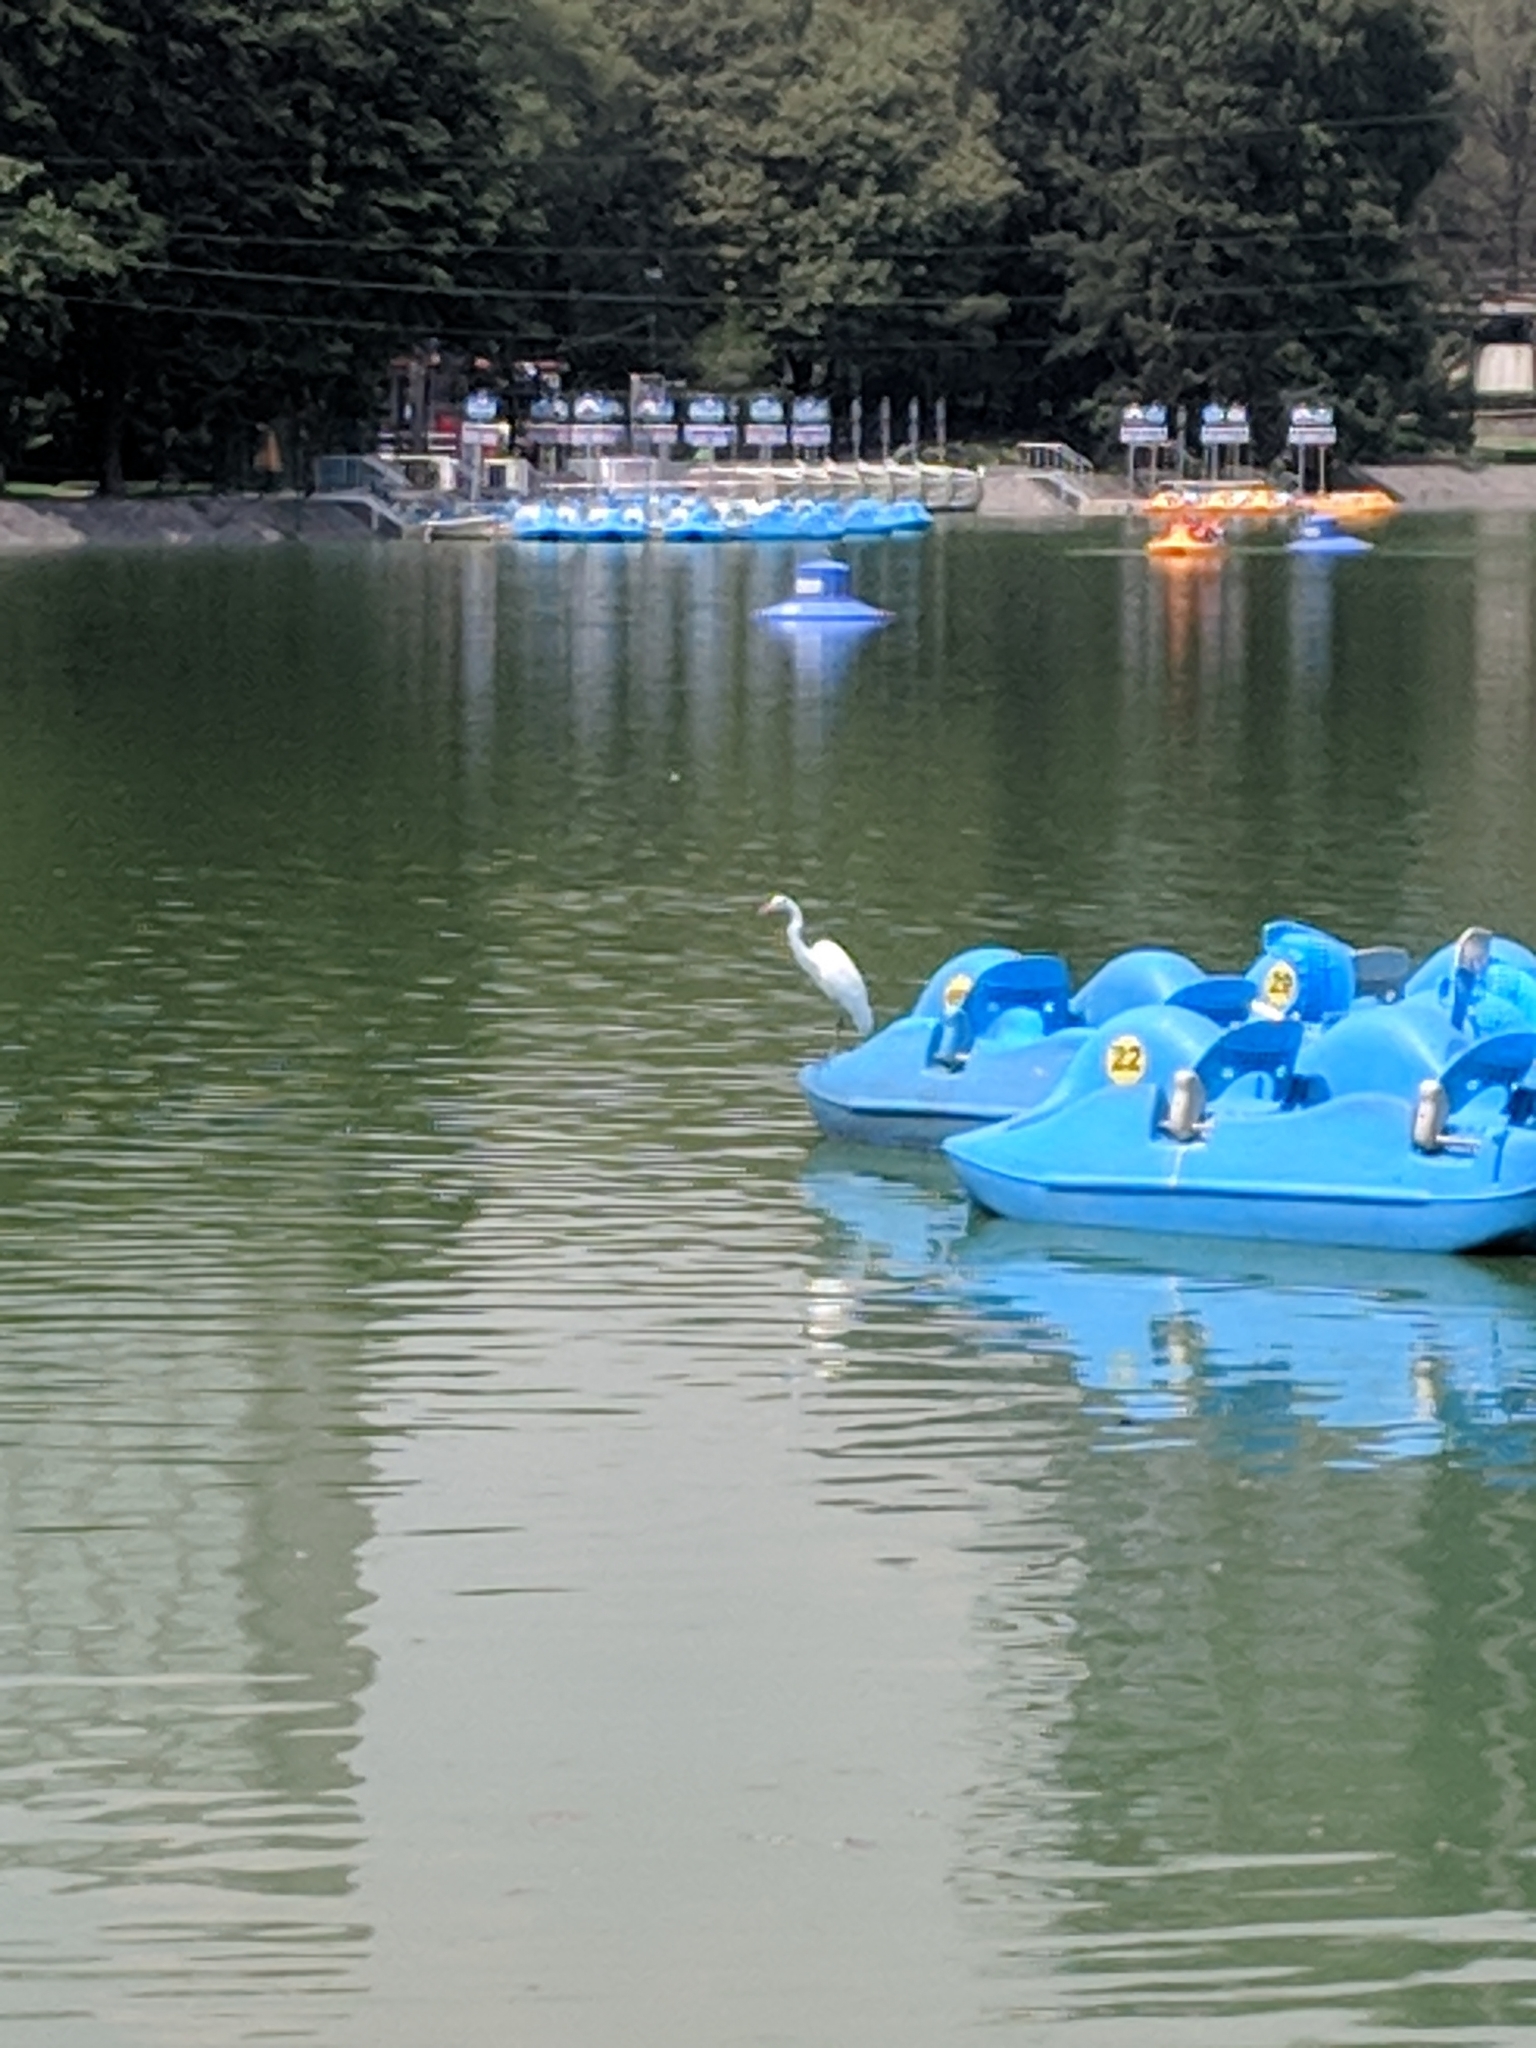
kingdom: Animalia
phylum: Chordata
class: Aves
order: Pelecaniformes
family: Ardeidae
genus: Ardea
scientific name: Ardea alba
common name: Great egret
